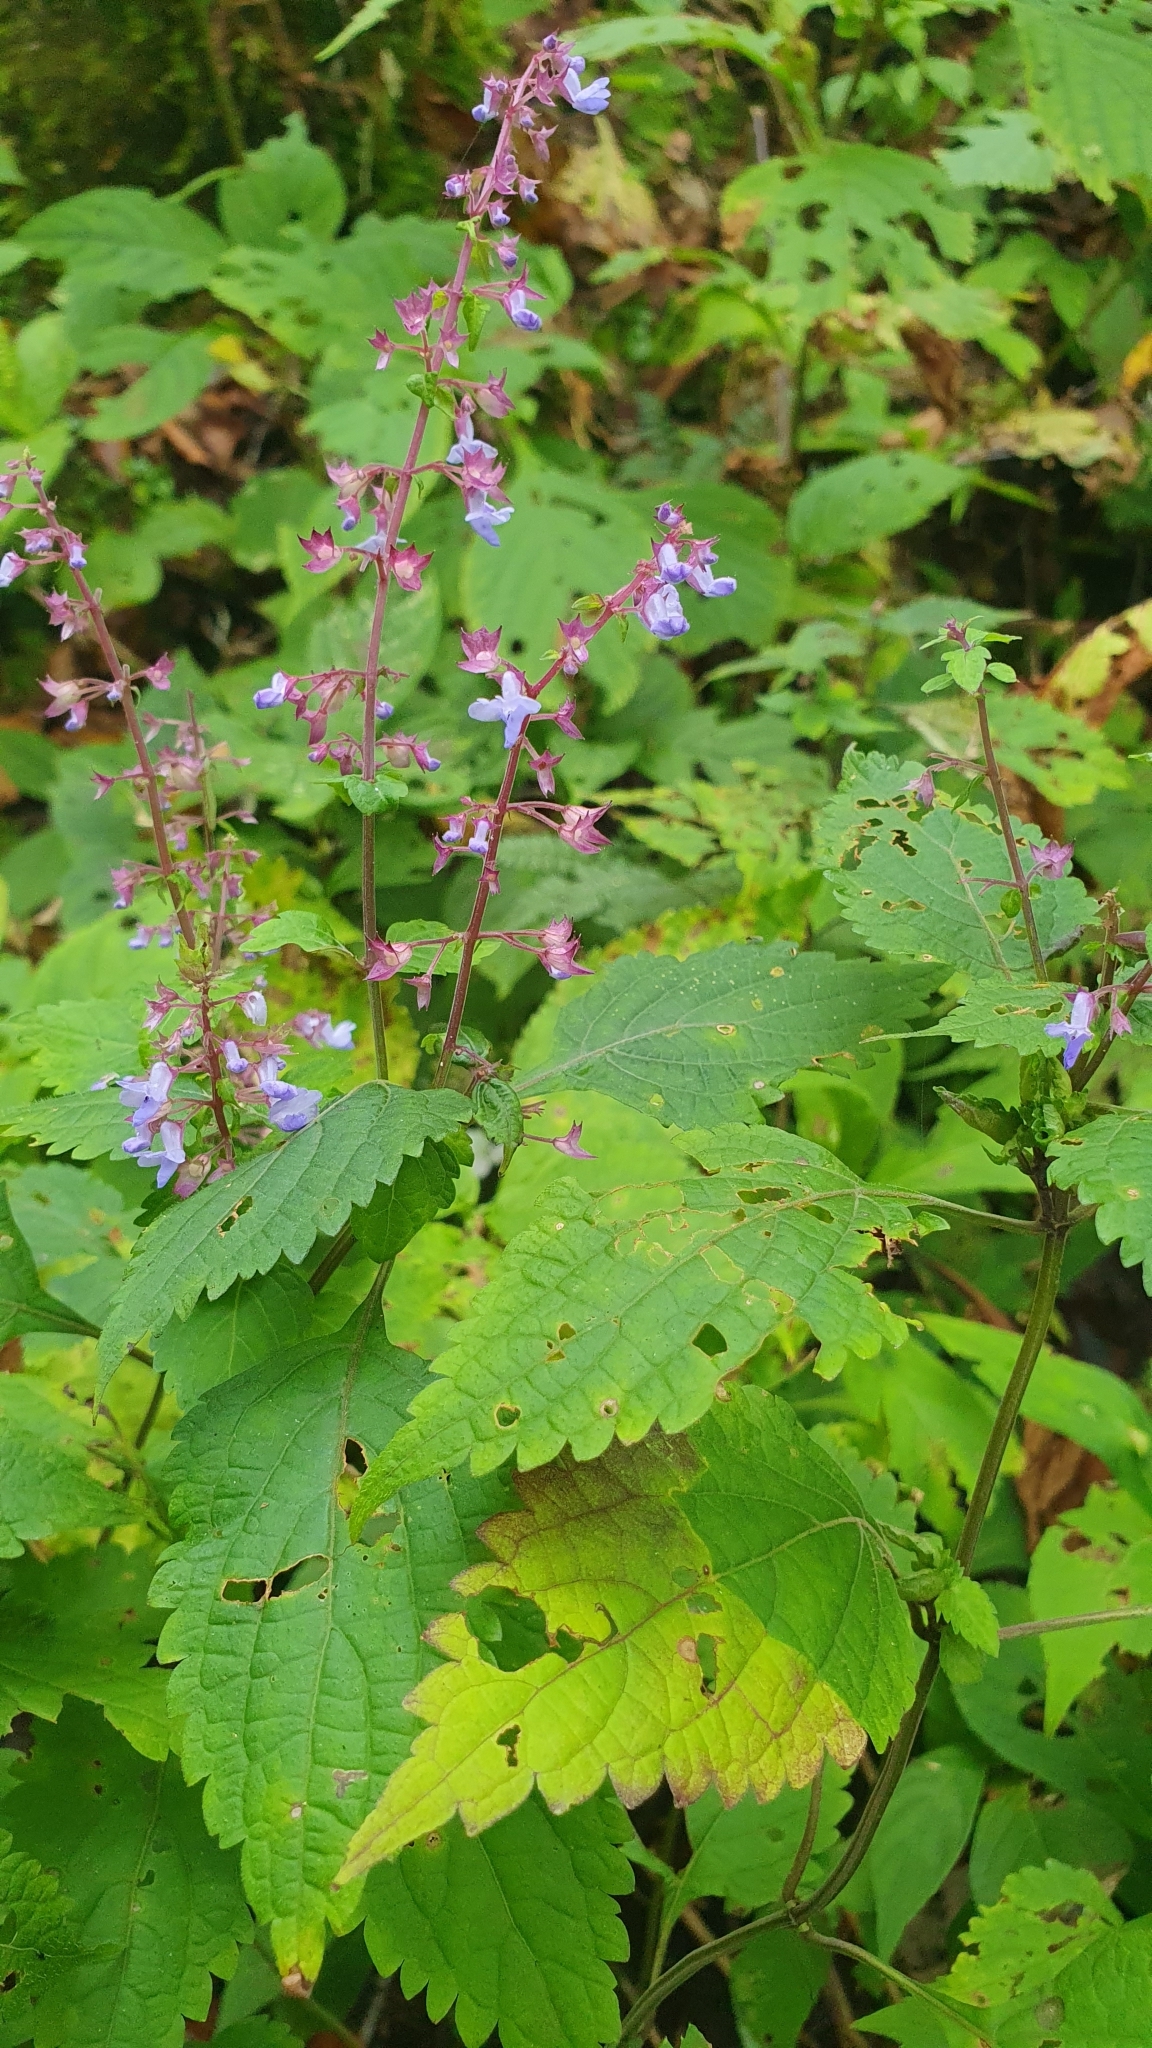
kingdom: Plantae
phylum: Tracheophyta
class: Magnoliopsida
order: Lamiales
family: Lamiaceae
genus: Isodon
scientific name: Isodon inflexus
